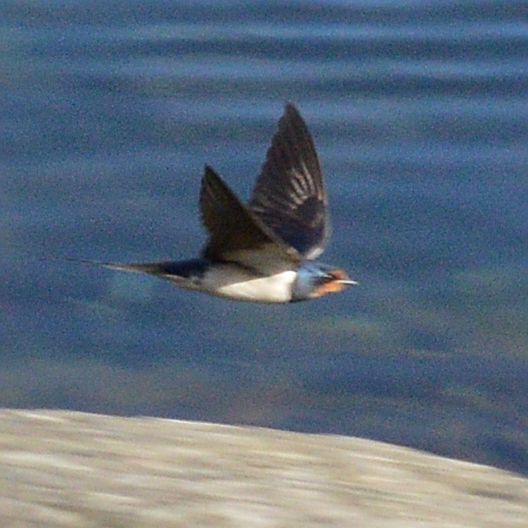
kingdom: Animalia
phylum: Chordata
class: Aves
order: Passeriformes
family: Hirundinidae
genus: Hirundo
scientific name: Hirundo rustica
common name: Barn swallow
